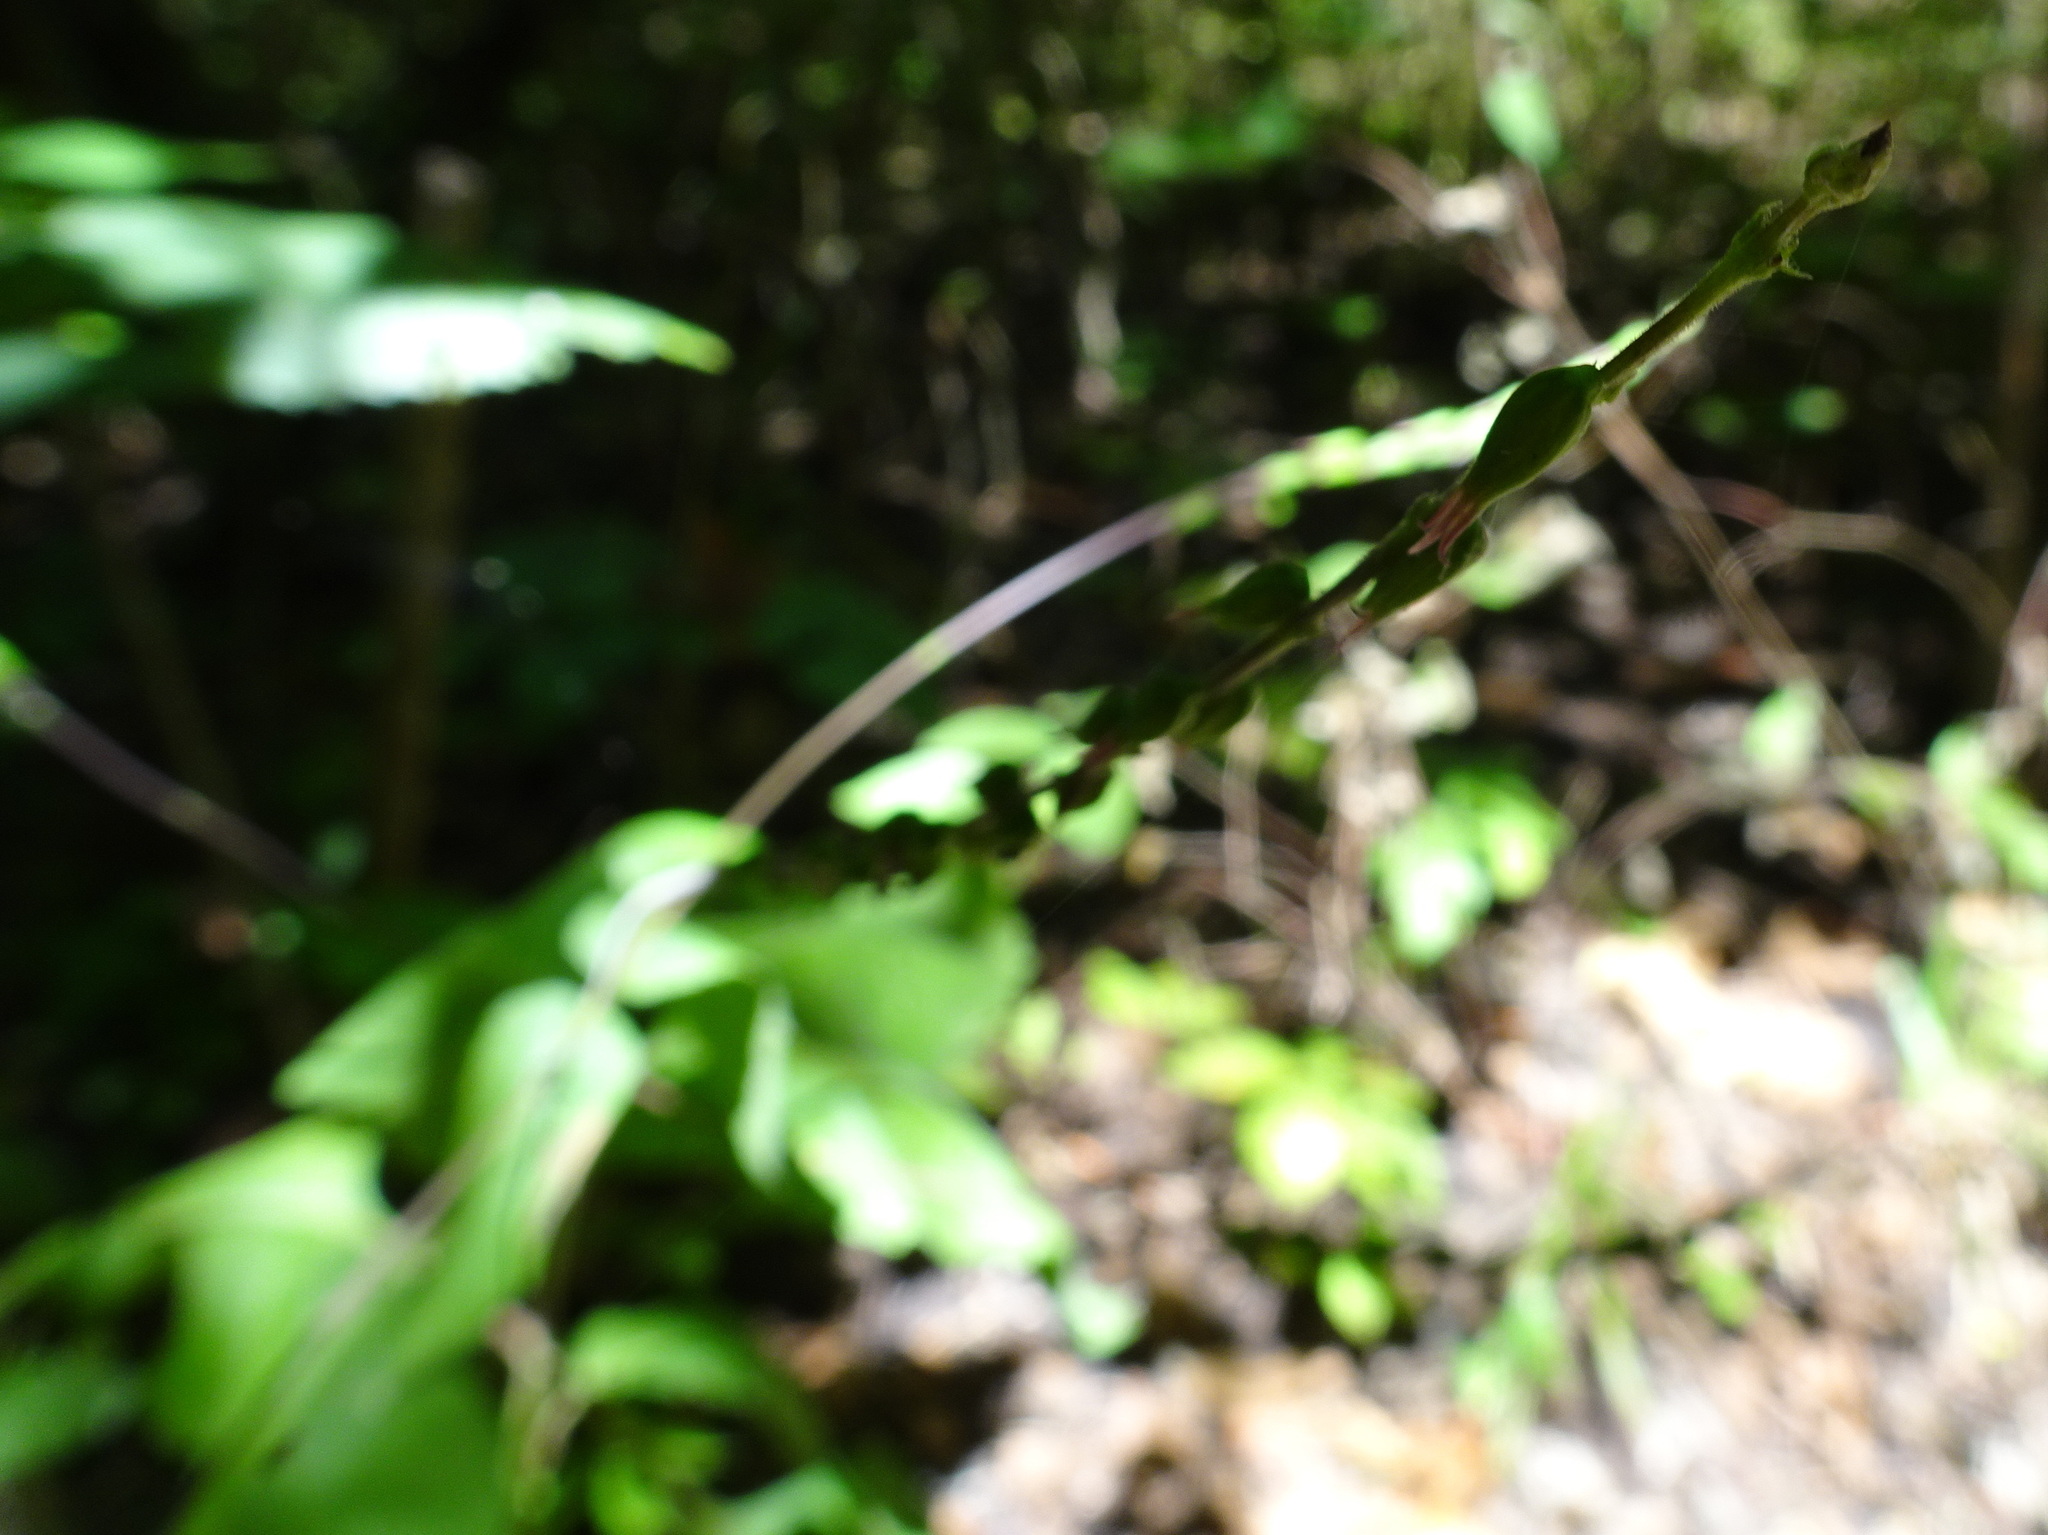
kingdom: Plantae
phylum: Tracheophyta
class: Magnoliopsida
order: Lamiales
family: Phrymaceae
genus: Phryma
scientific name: Phryma leptostachya
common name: American lopseed
